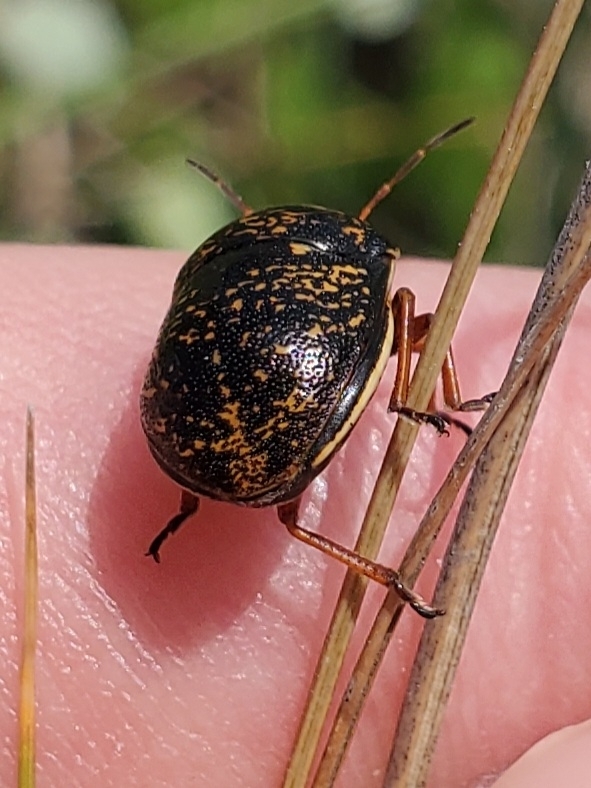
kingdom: Animalia
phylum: Arthropoda
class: Insecta
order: Hemiptera
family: Scutelleridae
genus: Orsilochides
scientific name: Orsilochides guttata
